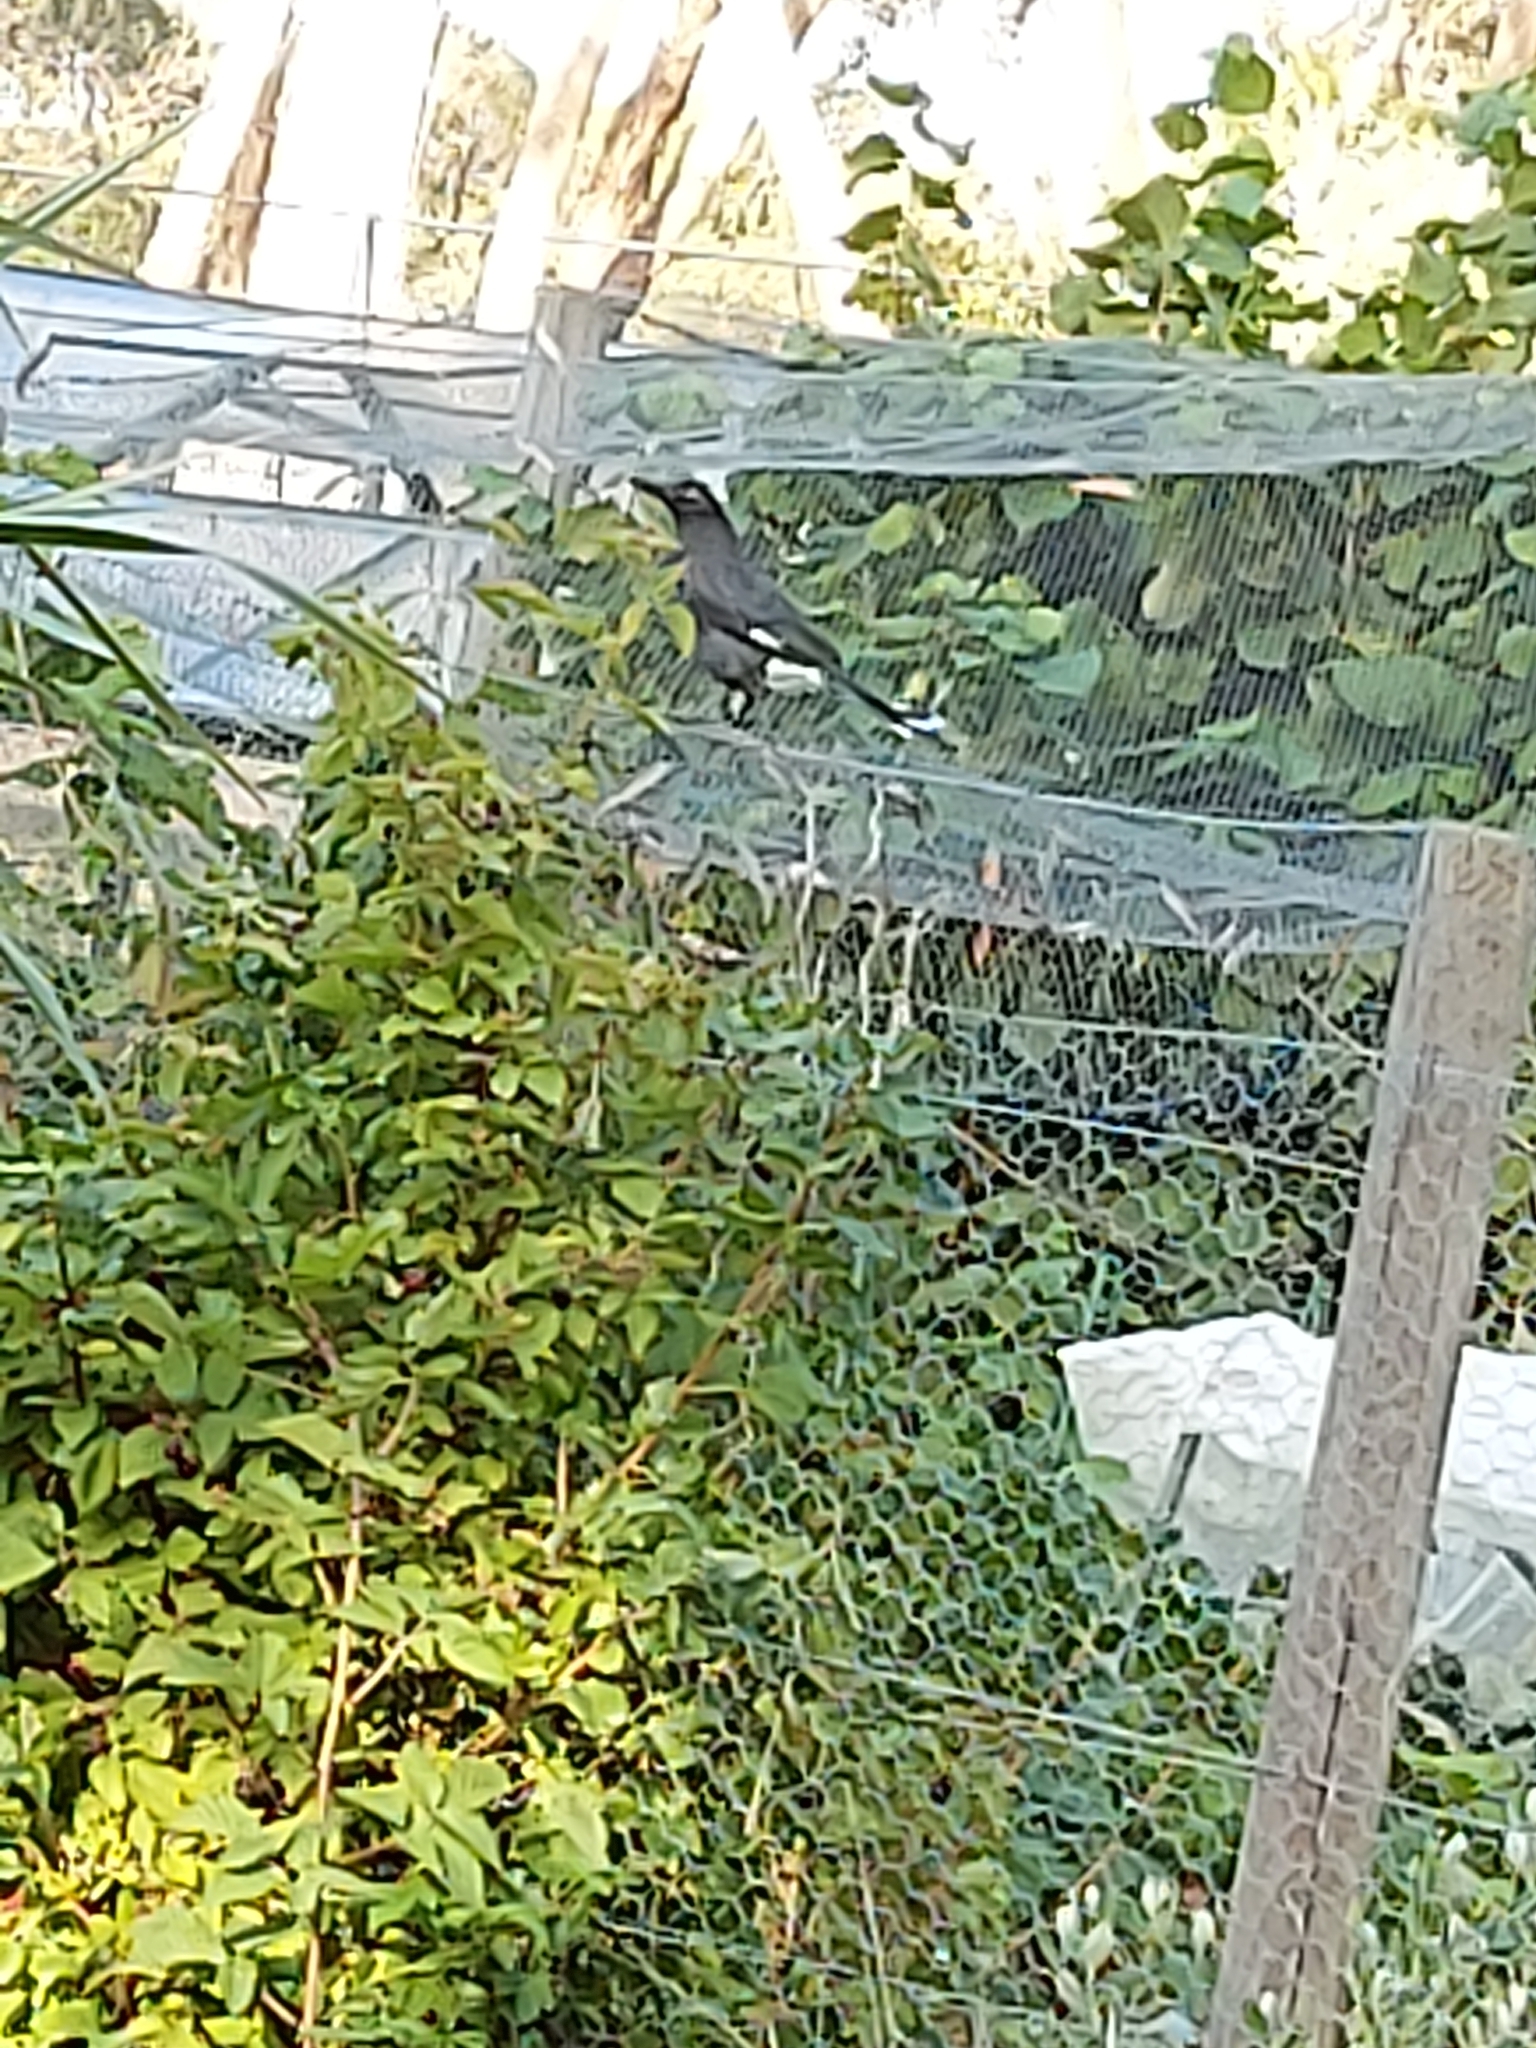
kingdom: Animalia
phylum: Chordata
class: Aves
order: Passeriformes
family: Cracticidae
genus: Strepera
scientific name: Strepera graculina
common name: Pied currawong
